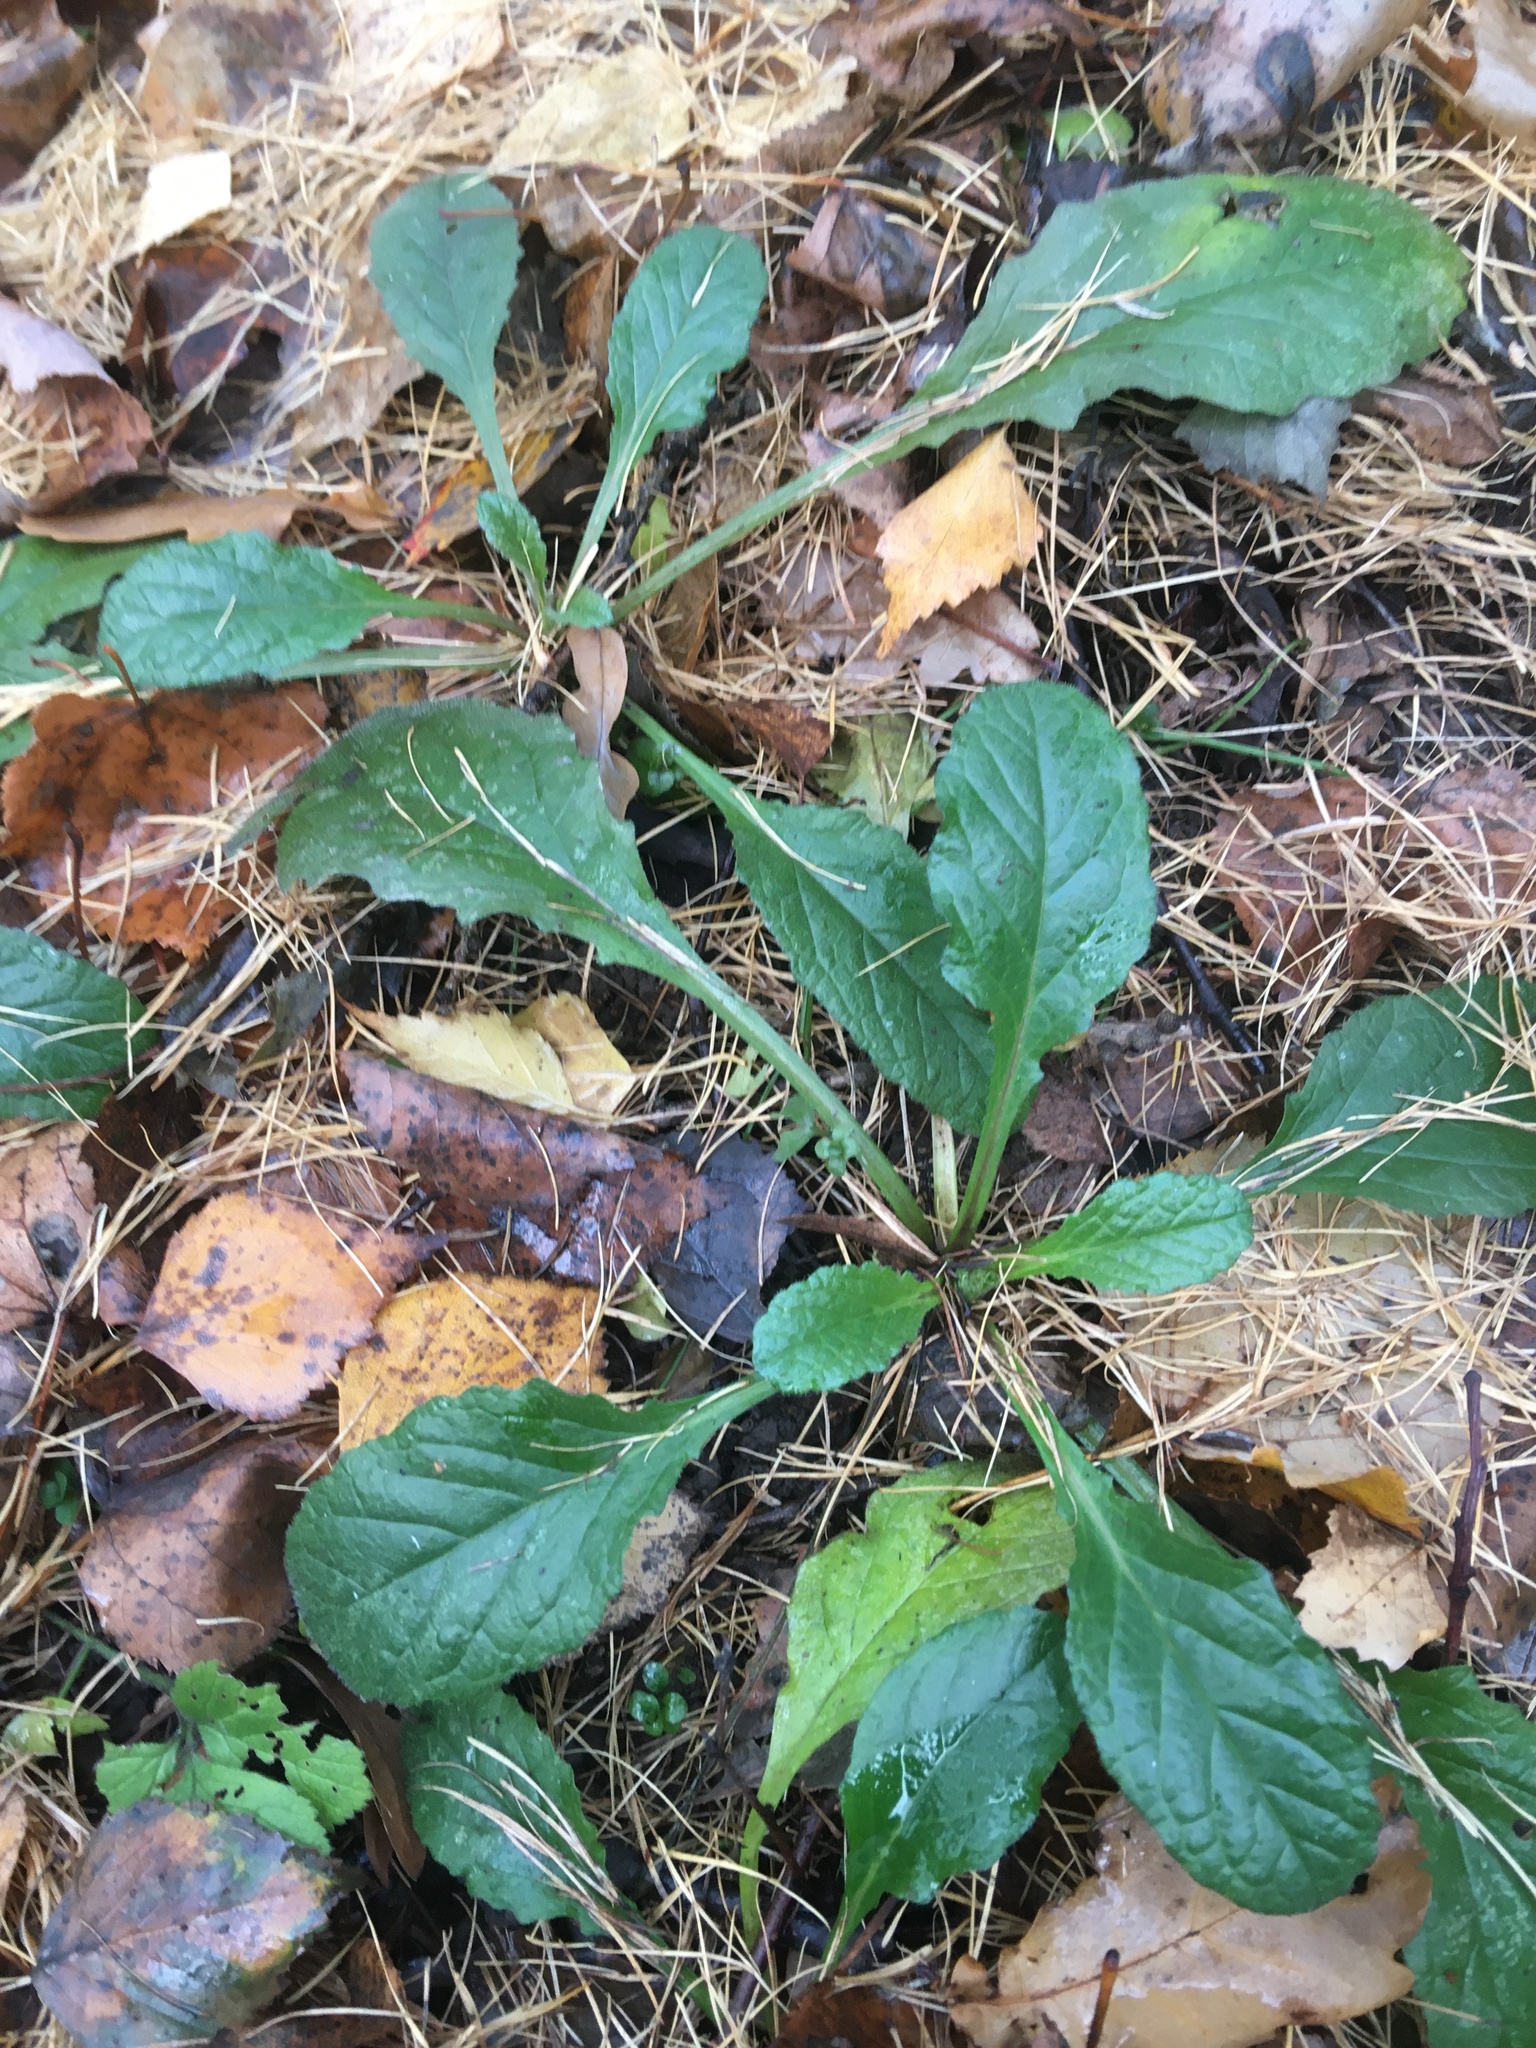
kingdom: Plantae
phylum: Tracheophyta
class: Magnoliopsida
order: Lamiales
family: Lamiaceae
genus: Ajuga
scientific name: Ajuga reptans
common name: Bugle
